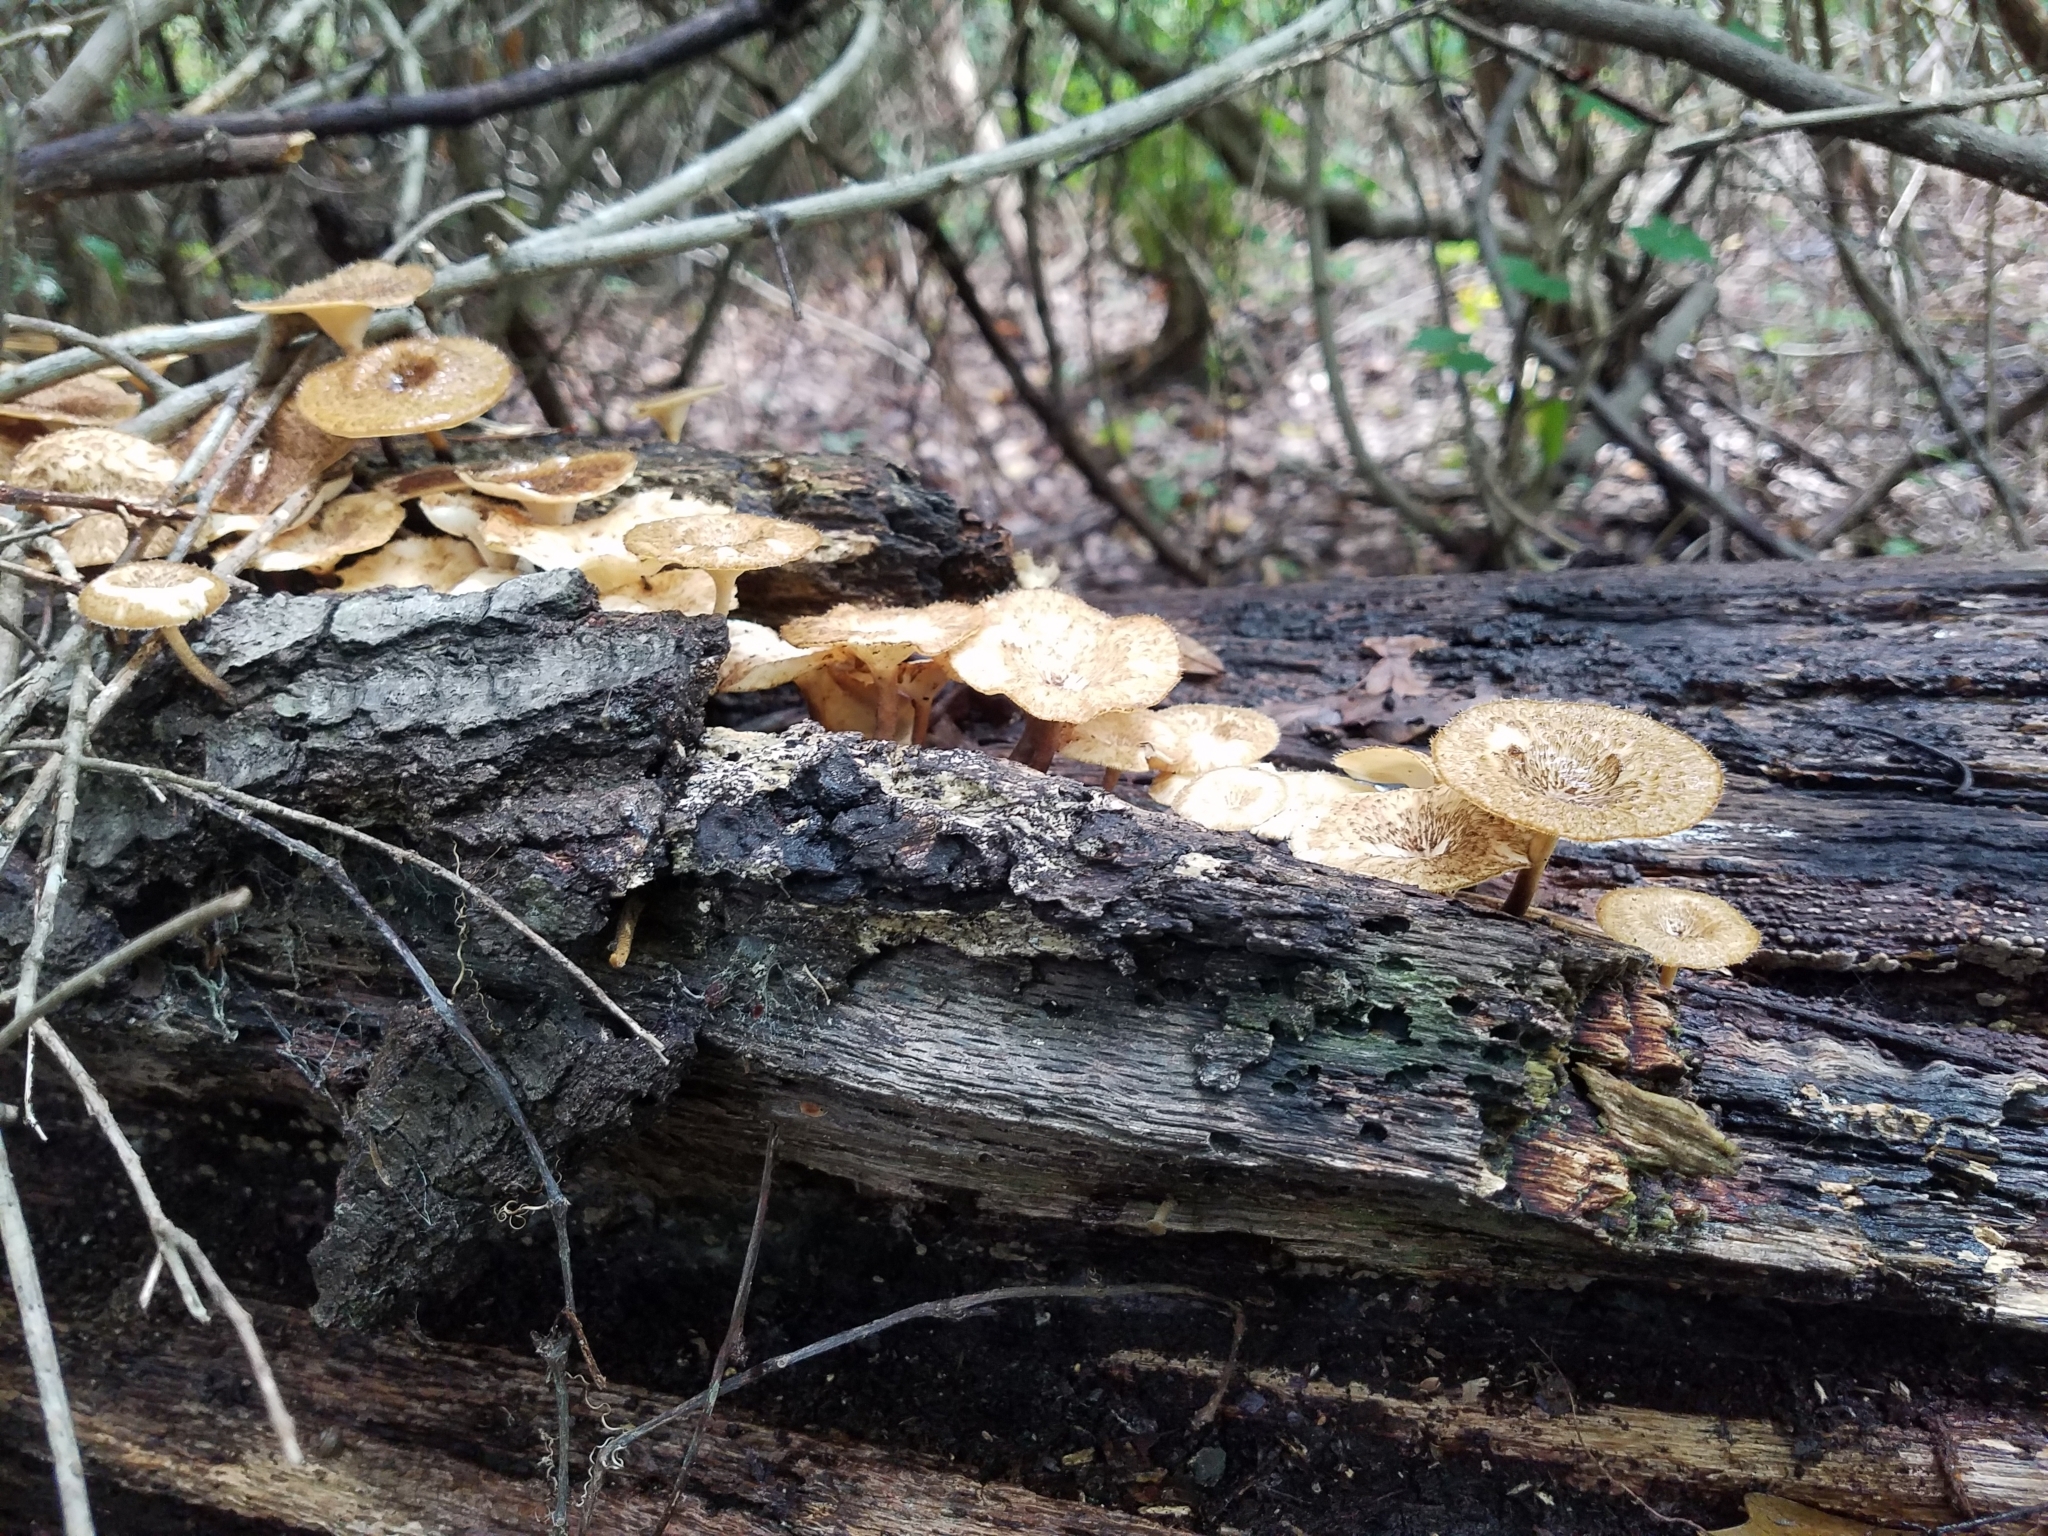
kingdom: Fungi
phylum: Basidiomycota
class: Agaricomycetes
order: Polyporales
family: Polyporaceae
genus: Lentinus
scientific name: Lentinus crinitus
